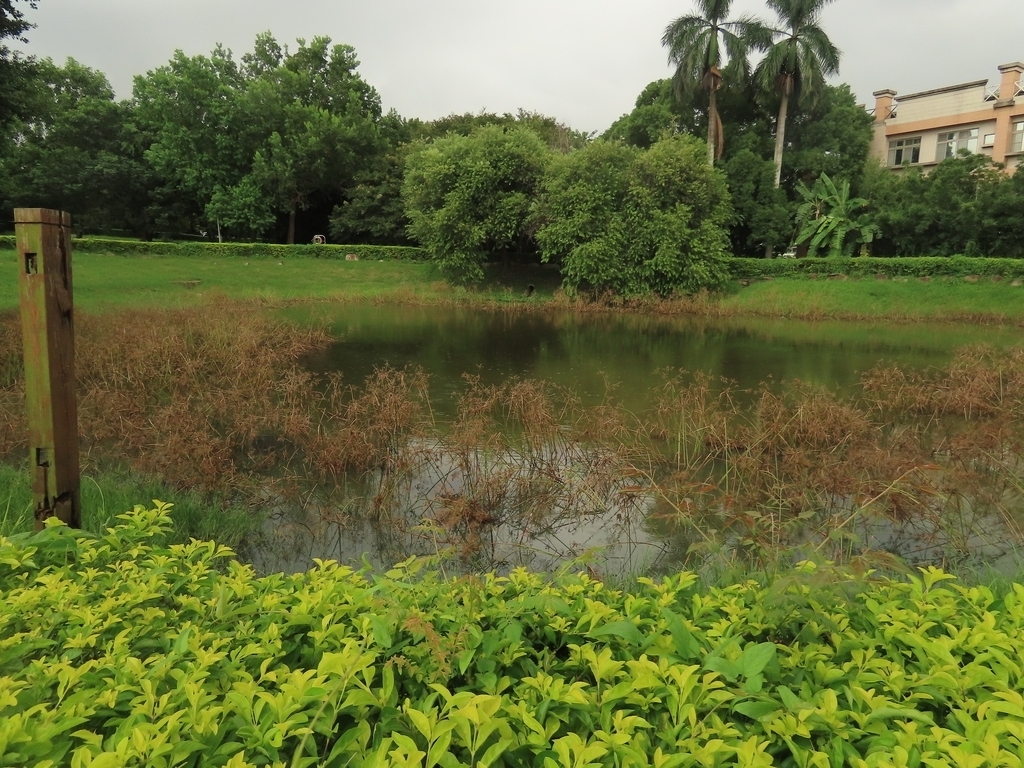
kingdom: Animalia
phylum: Chordata
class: Aves
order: Gruiformes
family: Rallidae
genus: Gallinula
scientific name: Gallinula chloropus
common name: Common moorhen
